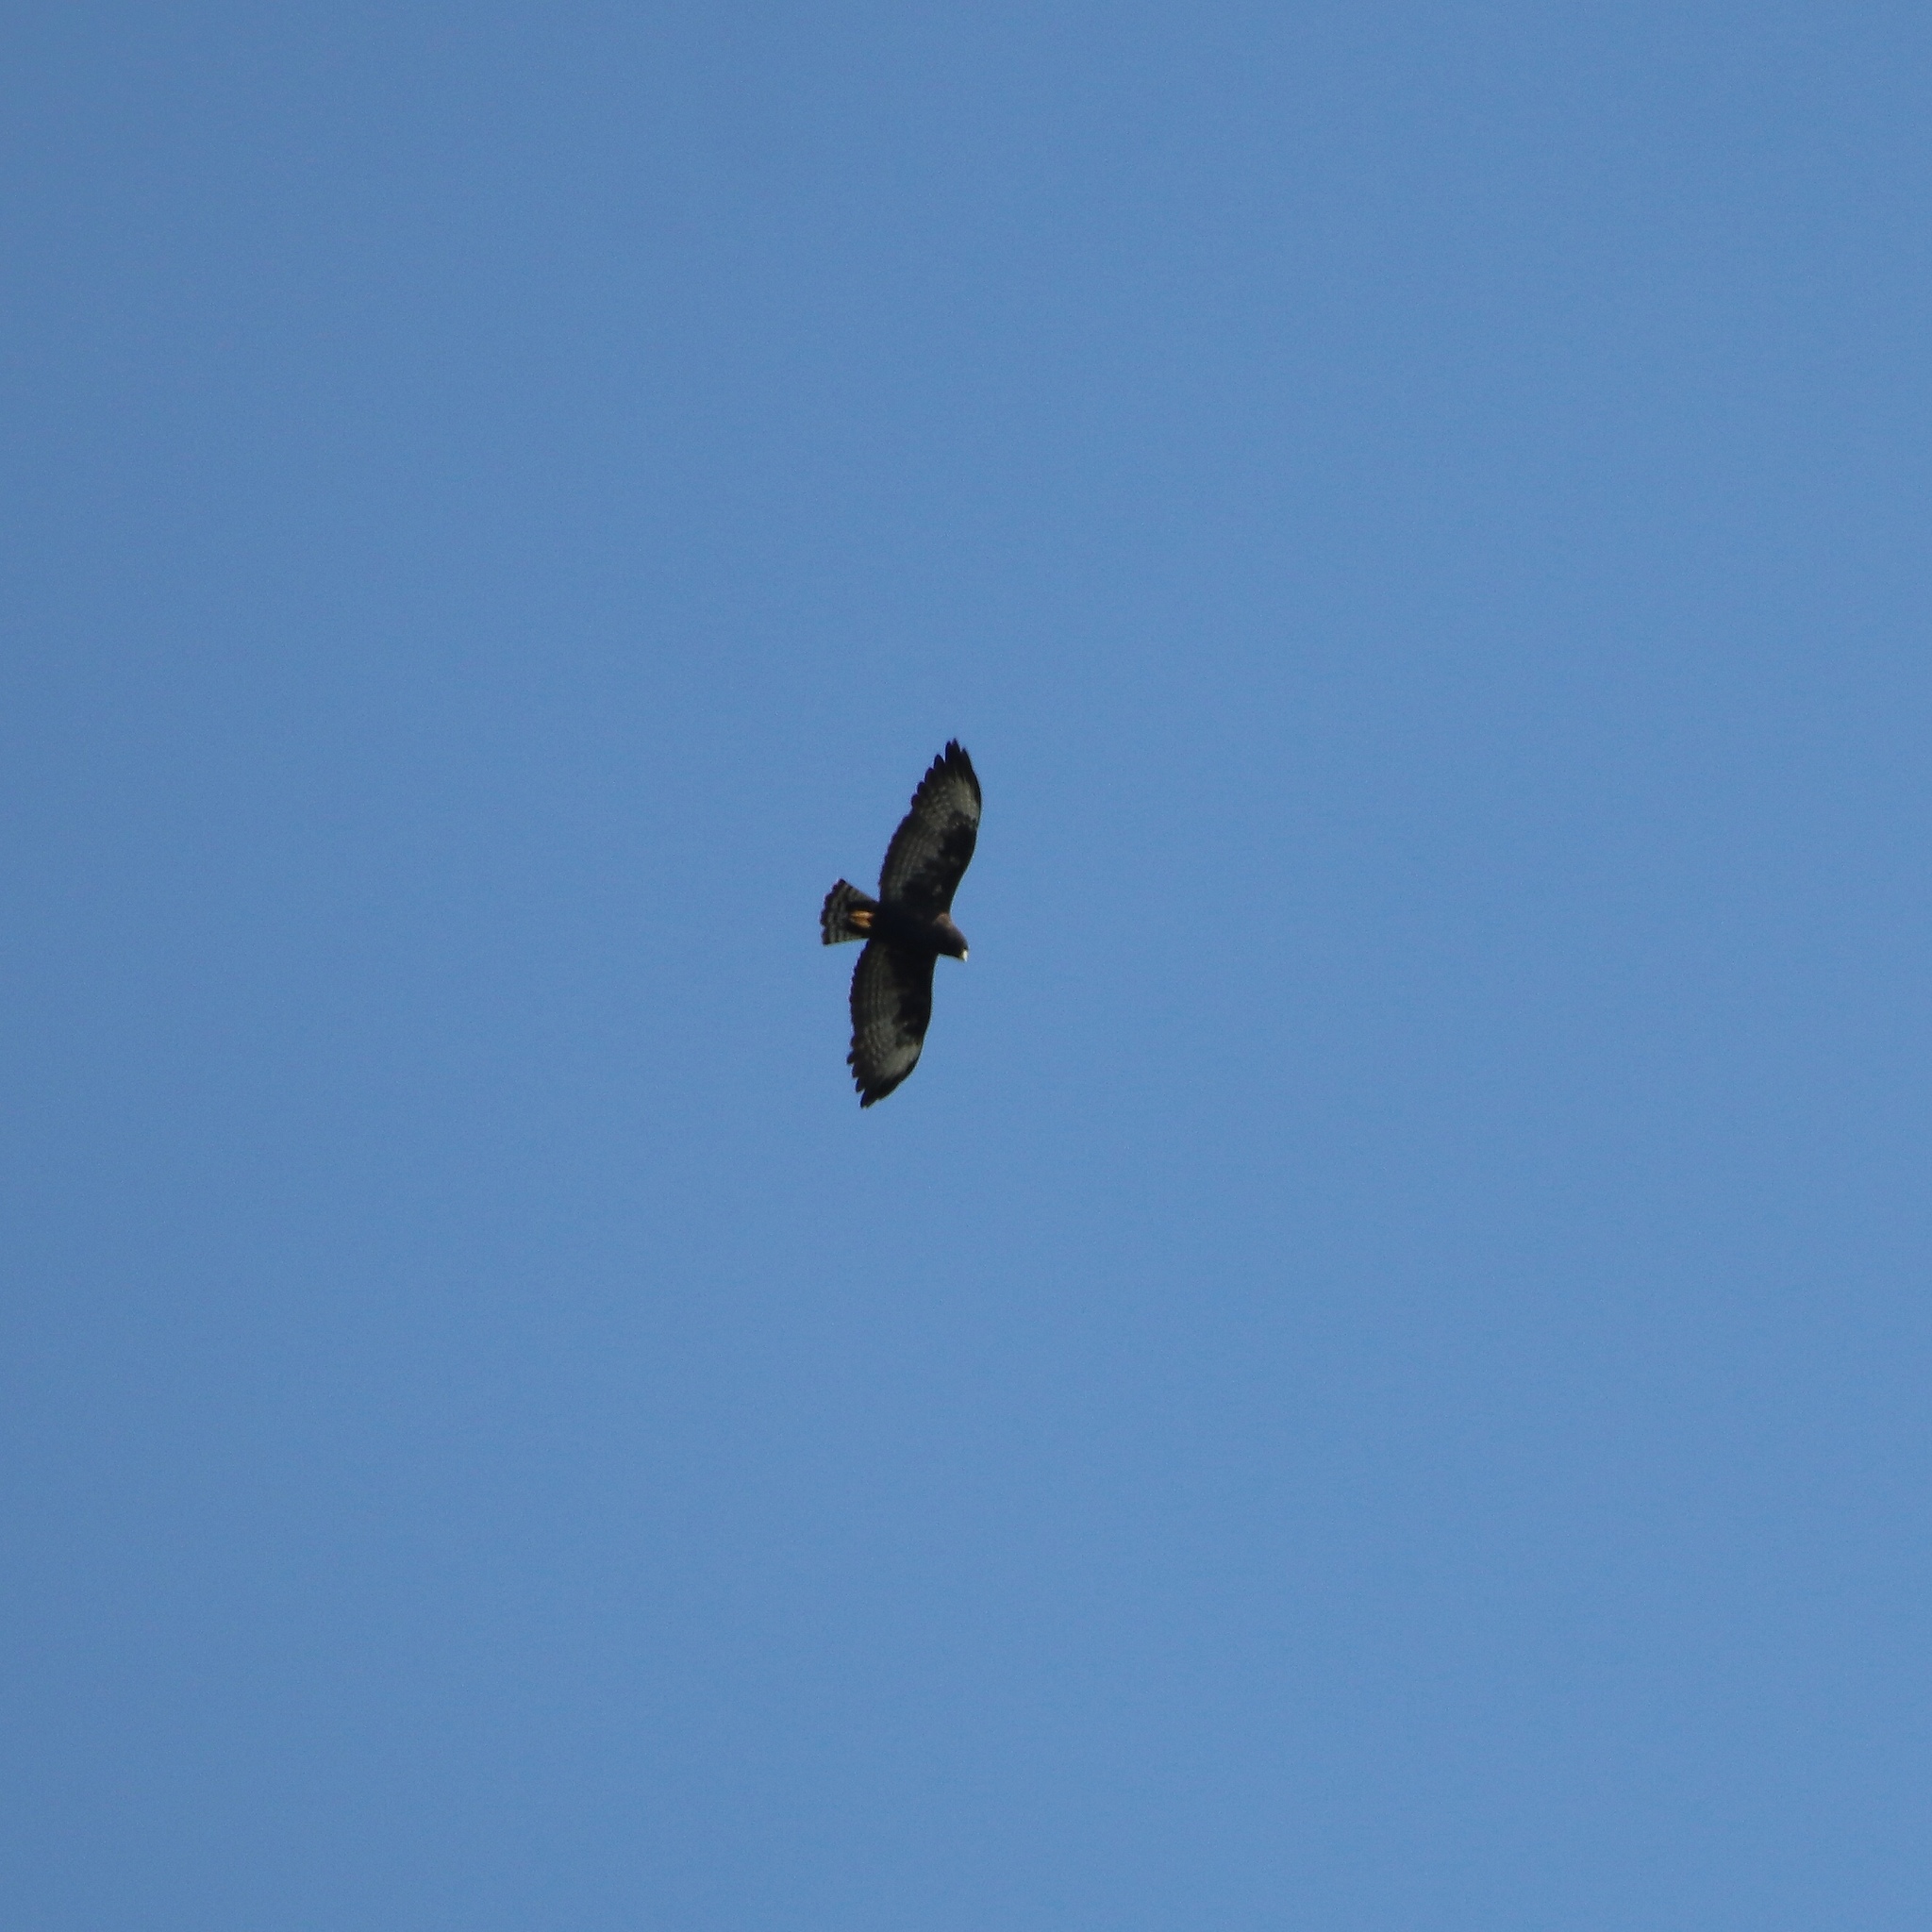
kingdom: Animalia
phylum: Chordata
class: Aves
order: Accipitriformes
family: Accipitridae
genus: Buteo
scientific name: Buteo brachyurus
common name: Short-tailed hawk
